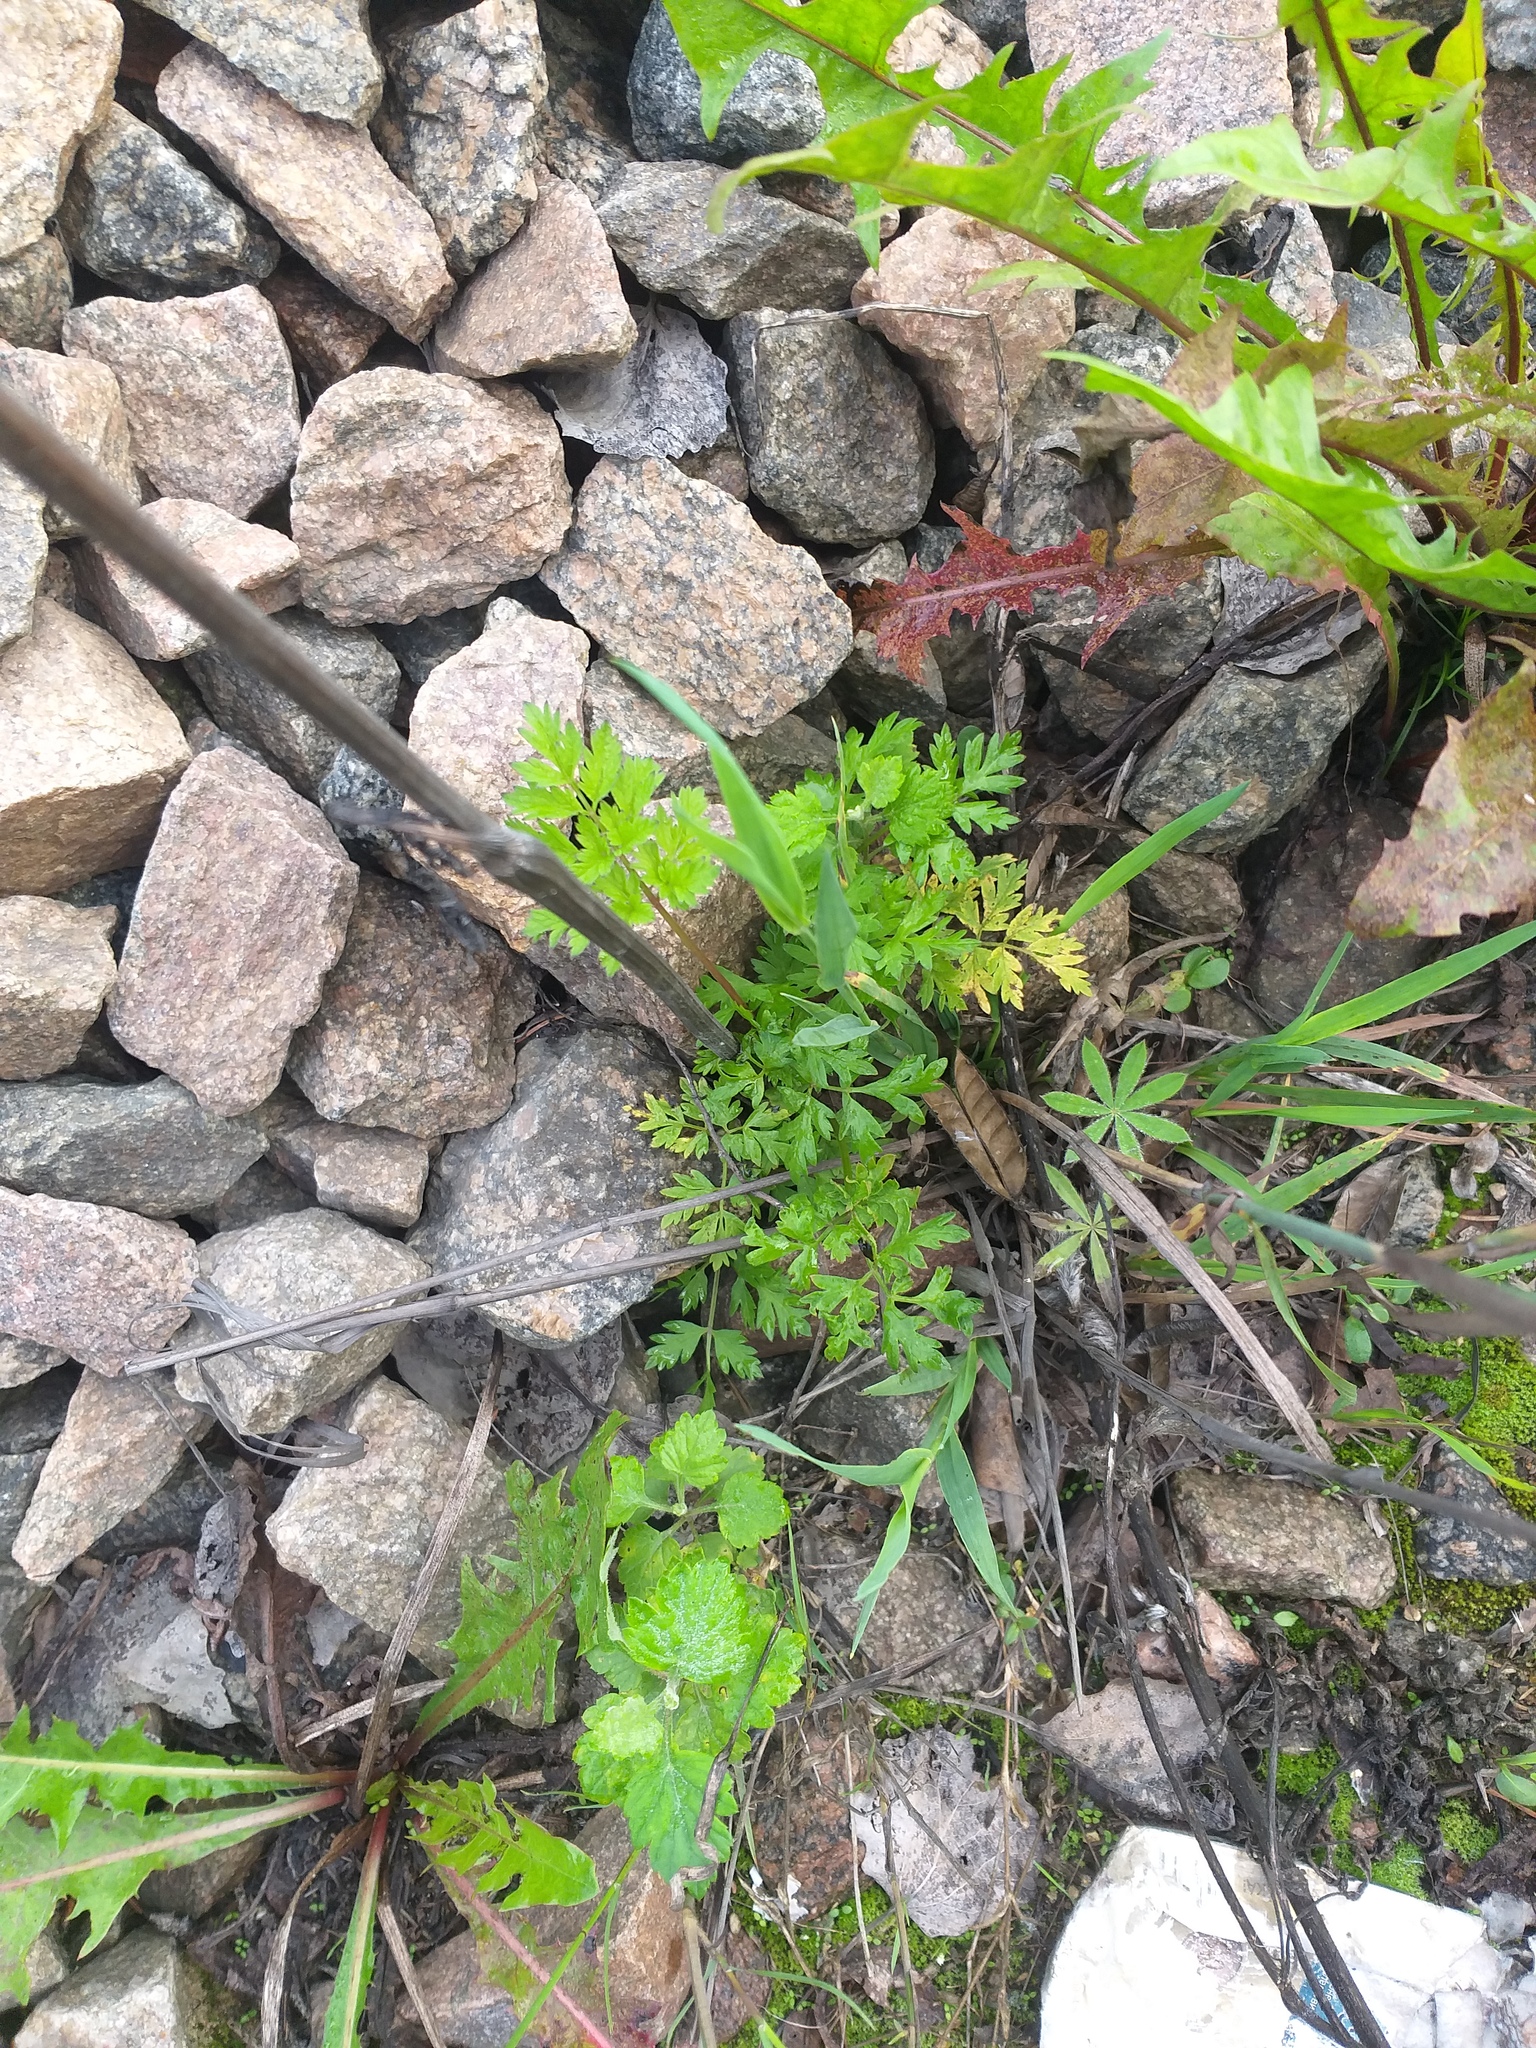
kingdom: Plantae
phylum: Tracheophyta
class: Magnoliopsida
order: Apiales
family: Apiaceae
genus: Anthriscus
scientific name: Anthriscus sylvestris
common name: Cow parsley
